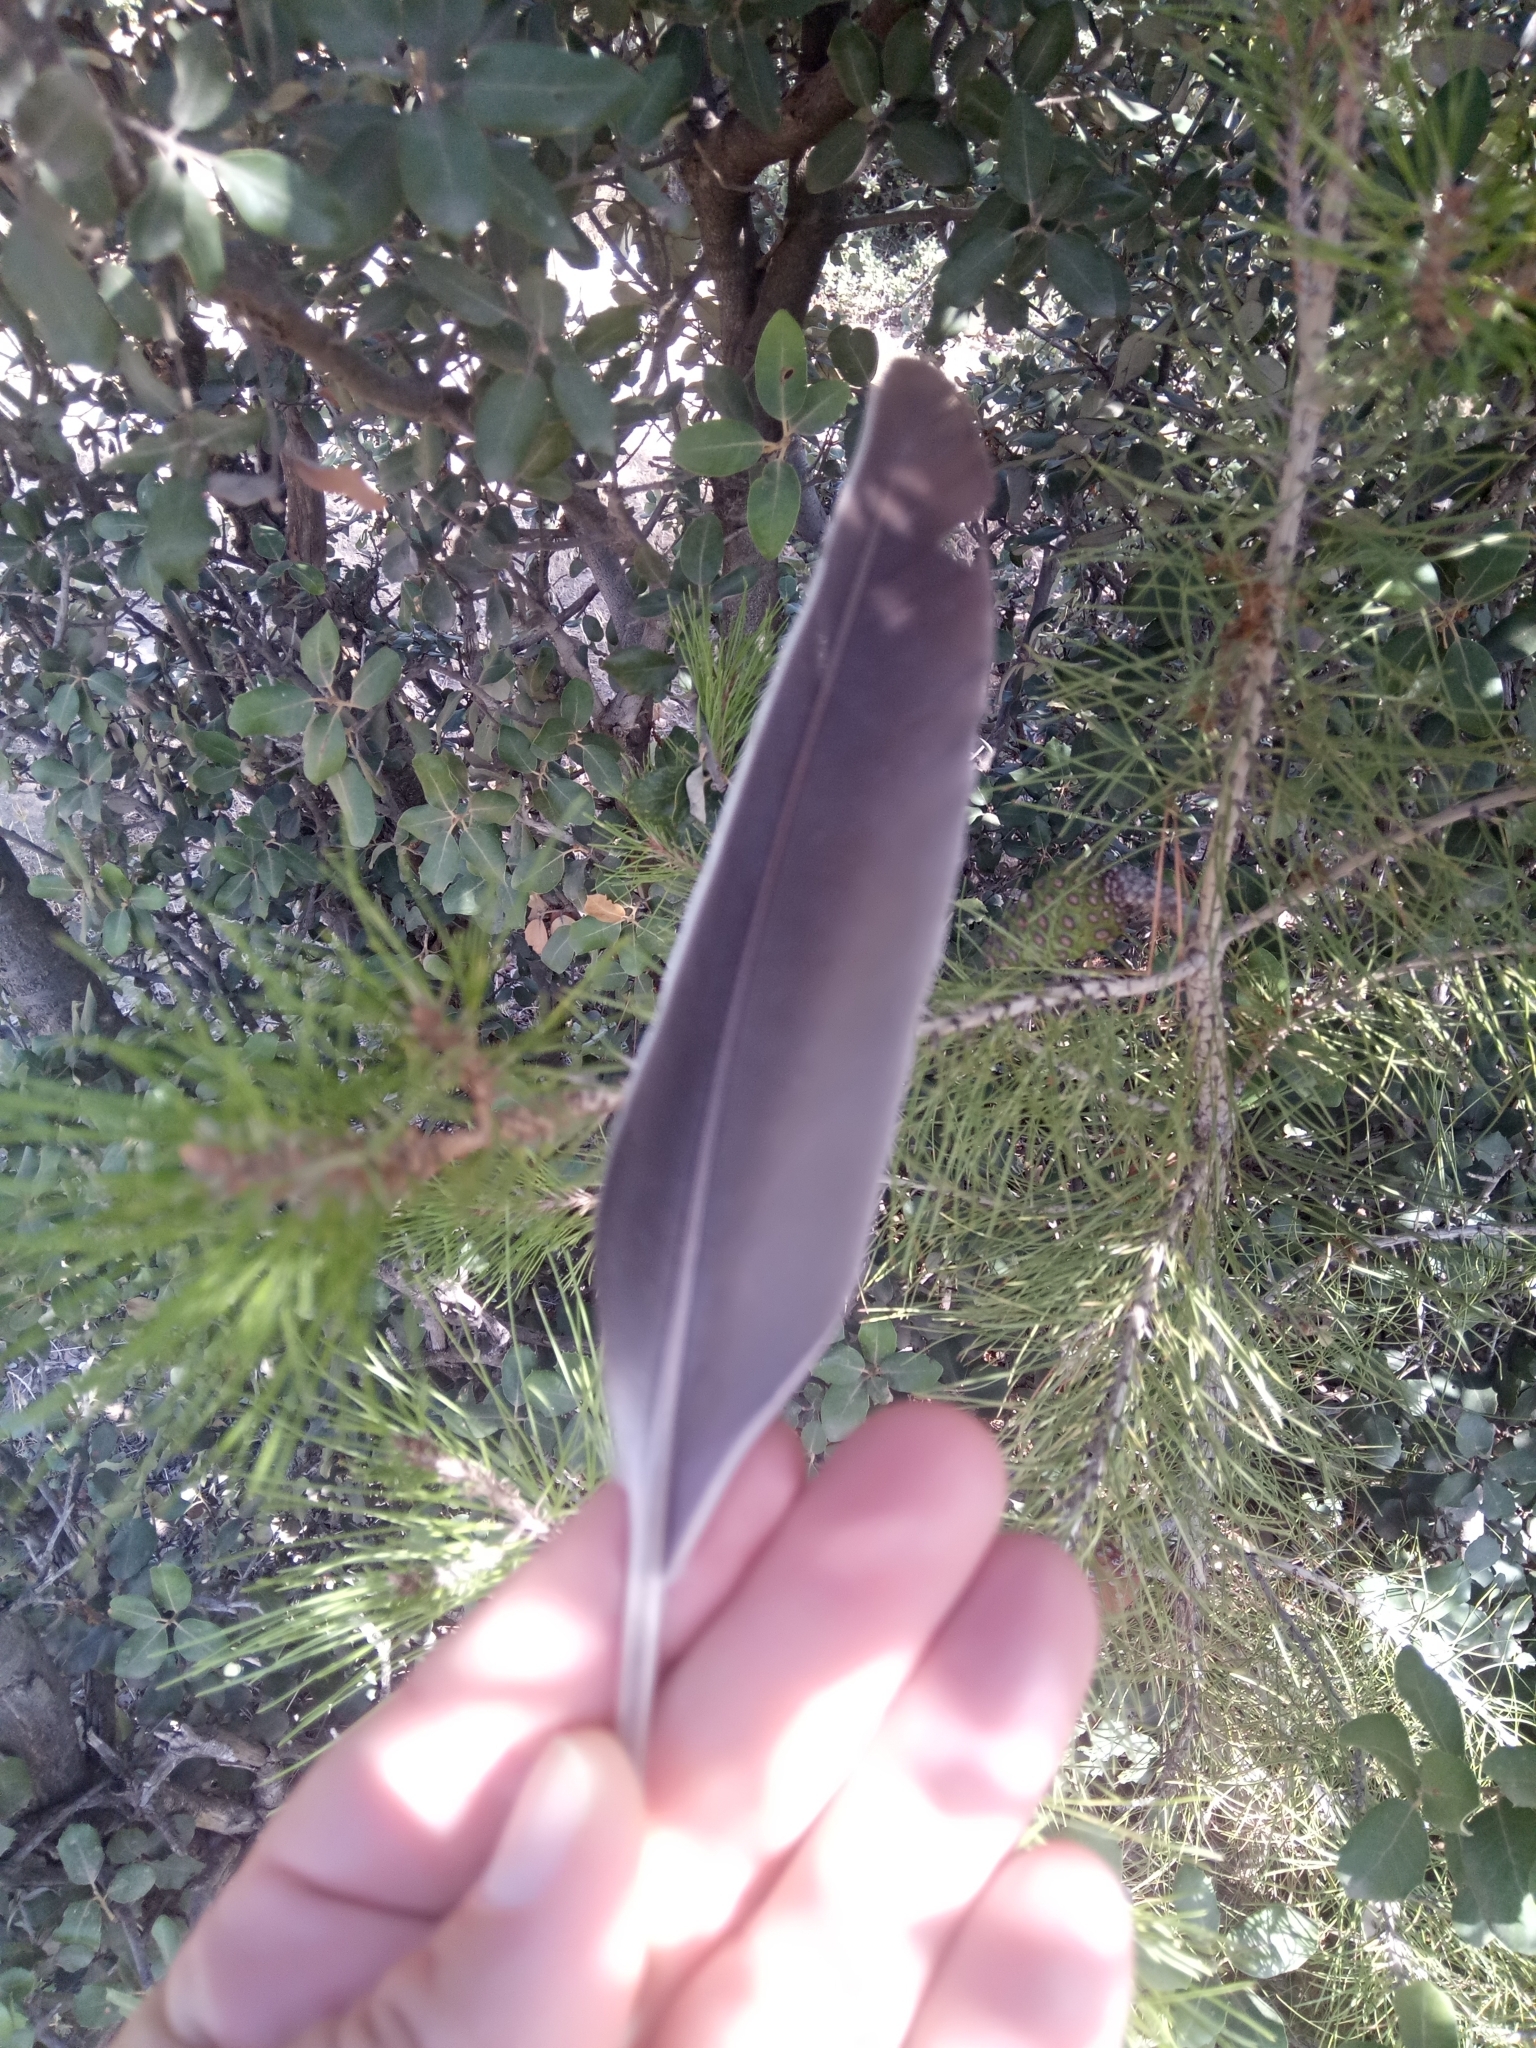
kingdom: Animalia
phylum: Chordata
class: Aves
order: Columbiformes
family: Columbidae
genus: Columba
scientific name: Columba palumbus
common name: Common wood pigeon
